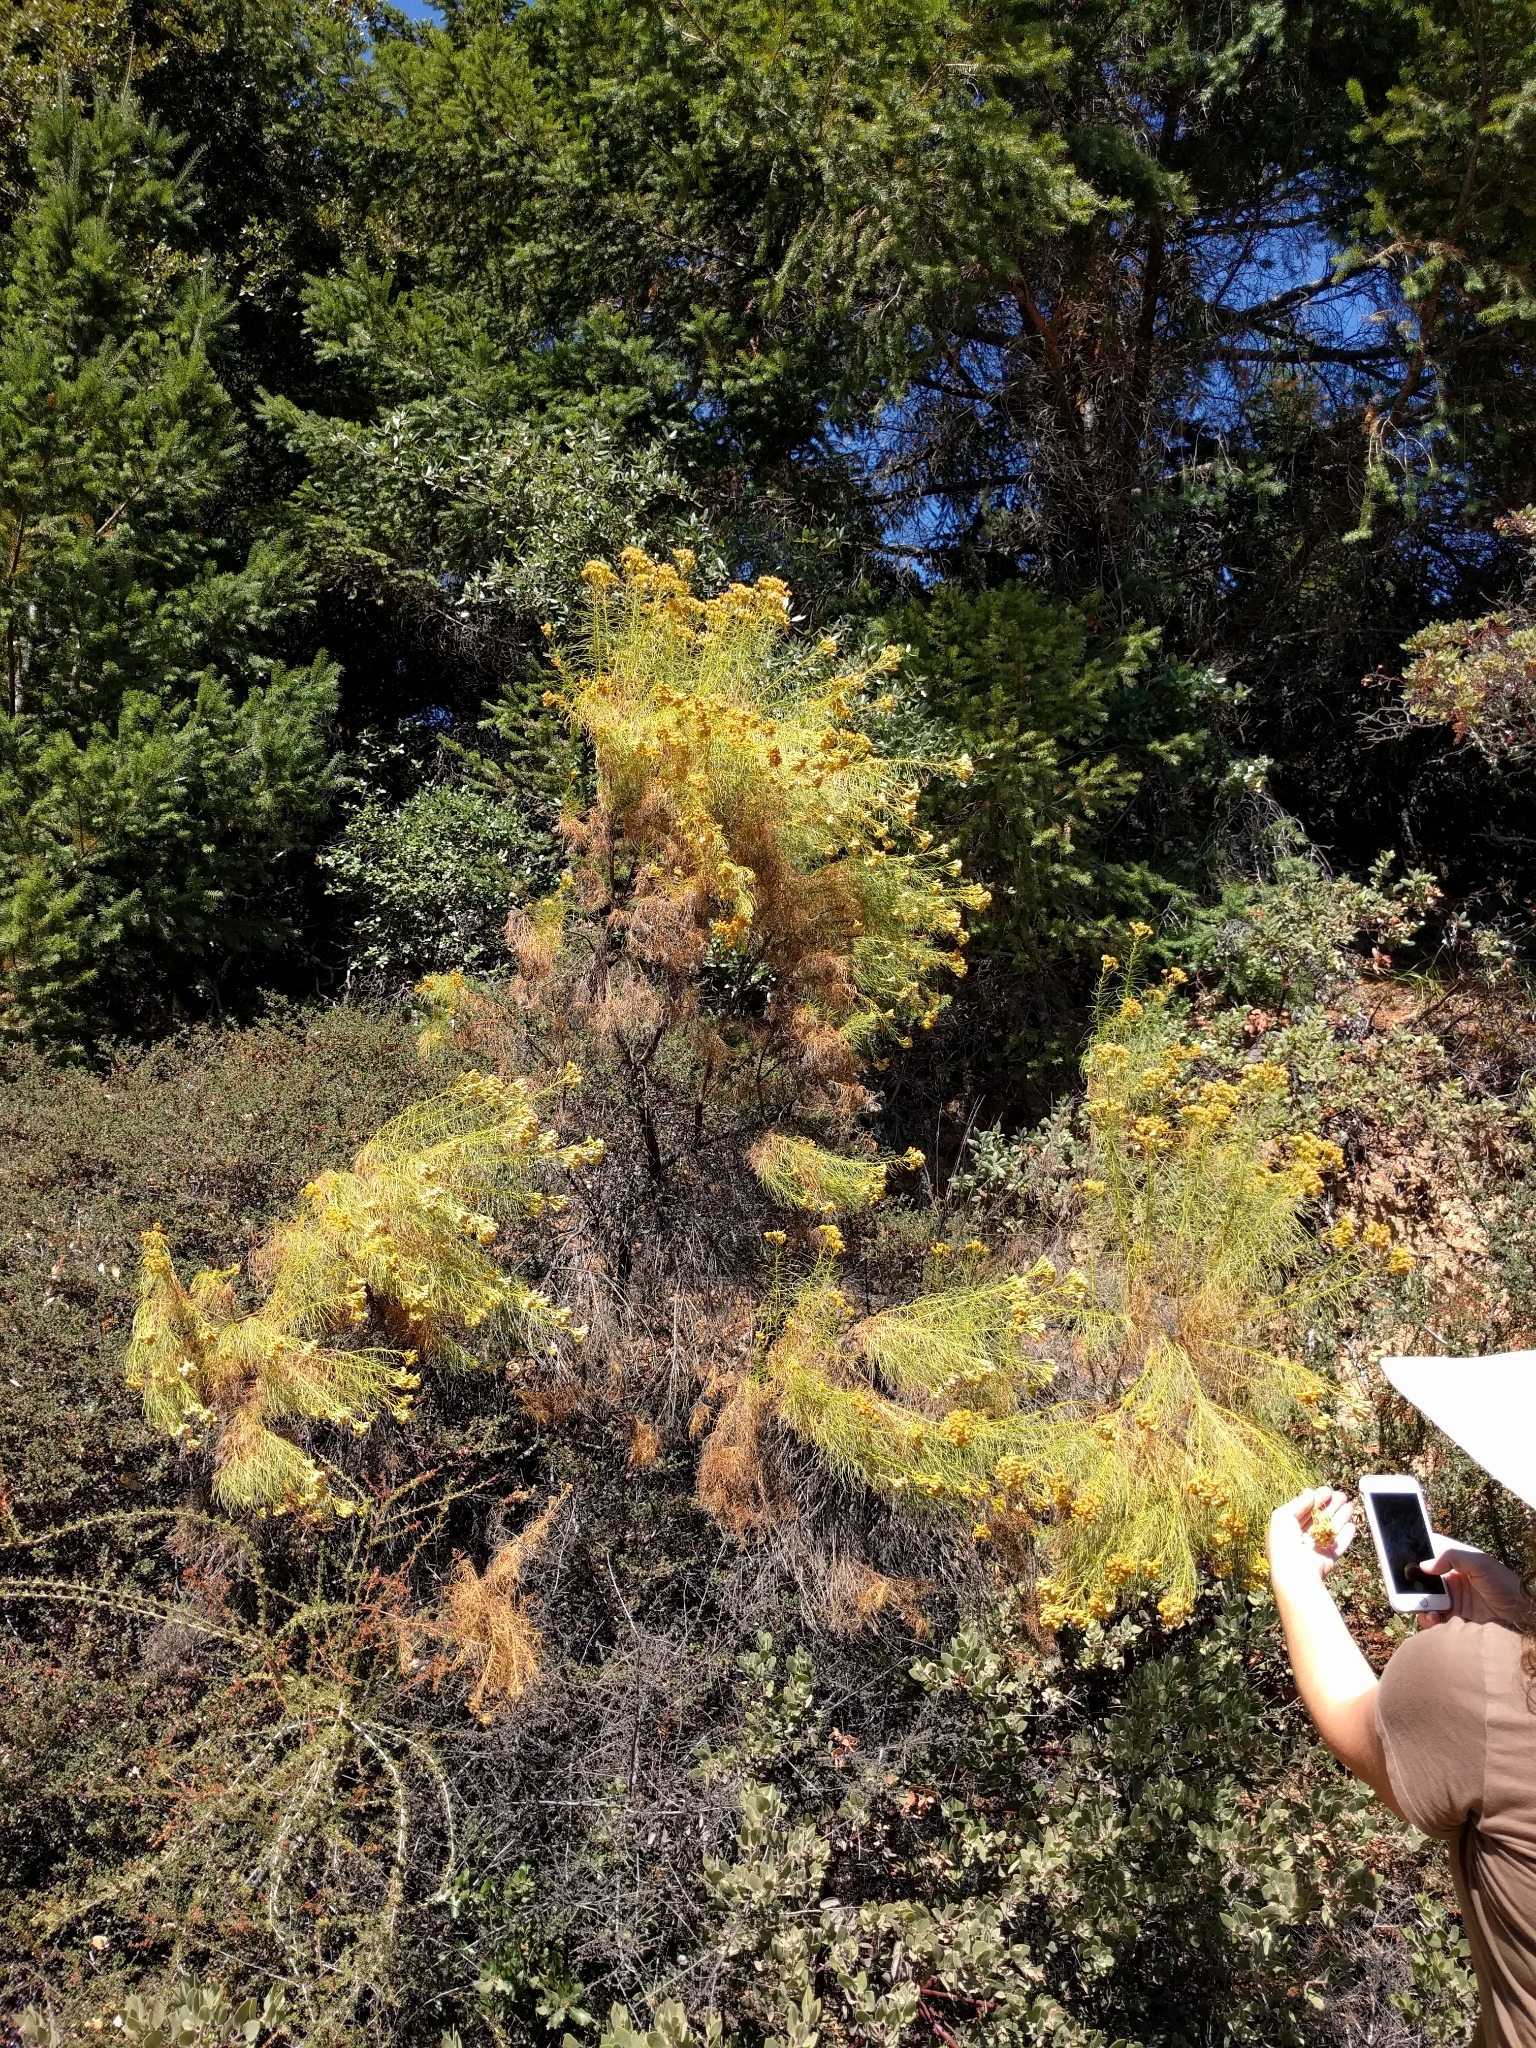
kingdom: Plantae
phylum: Tracheophyta
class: Magnoliopsida
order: Asterales
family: Asteraceae
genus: Ericameria
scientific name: Ericameria arborescens
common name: Goldenfleece
